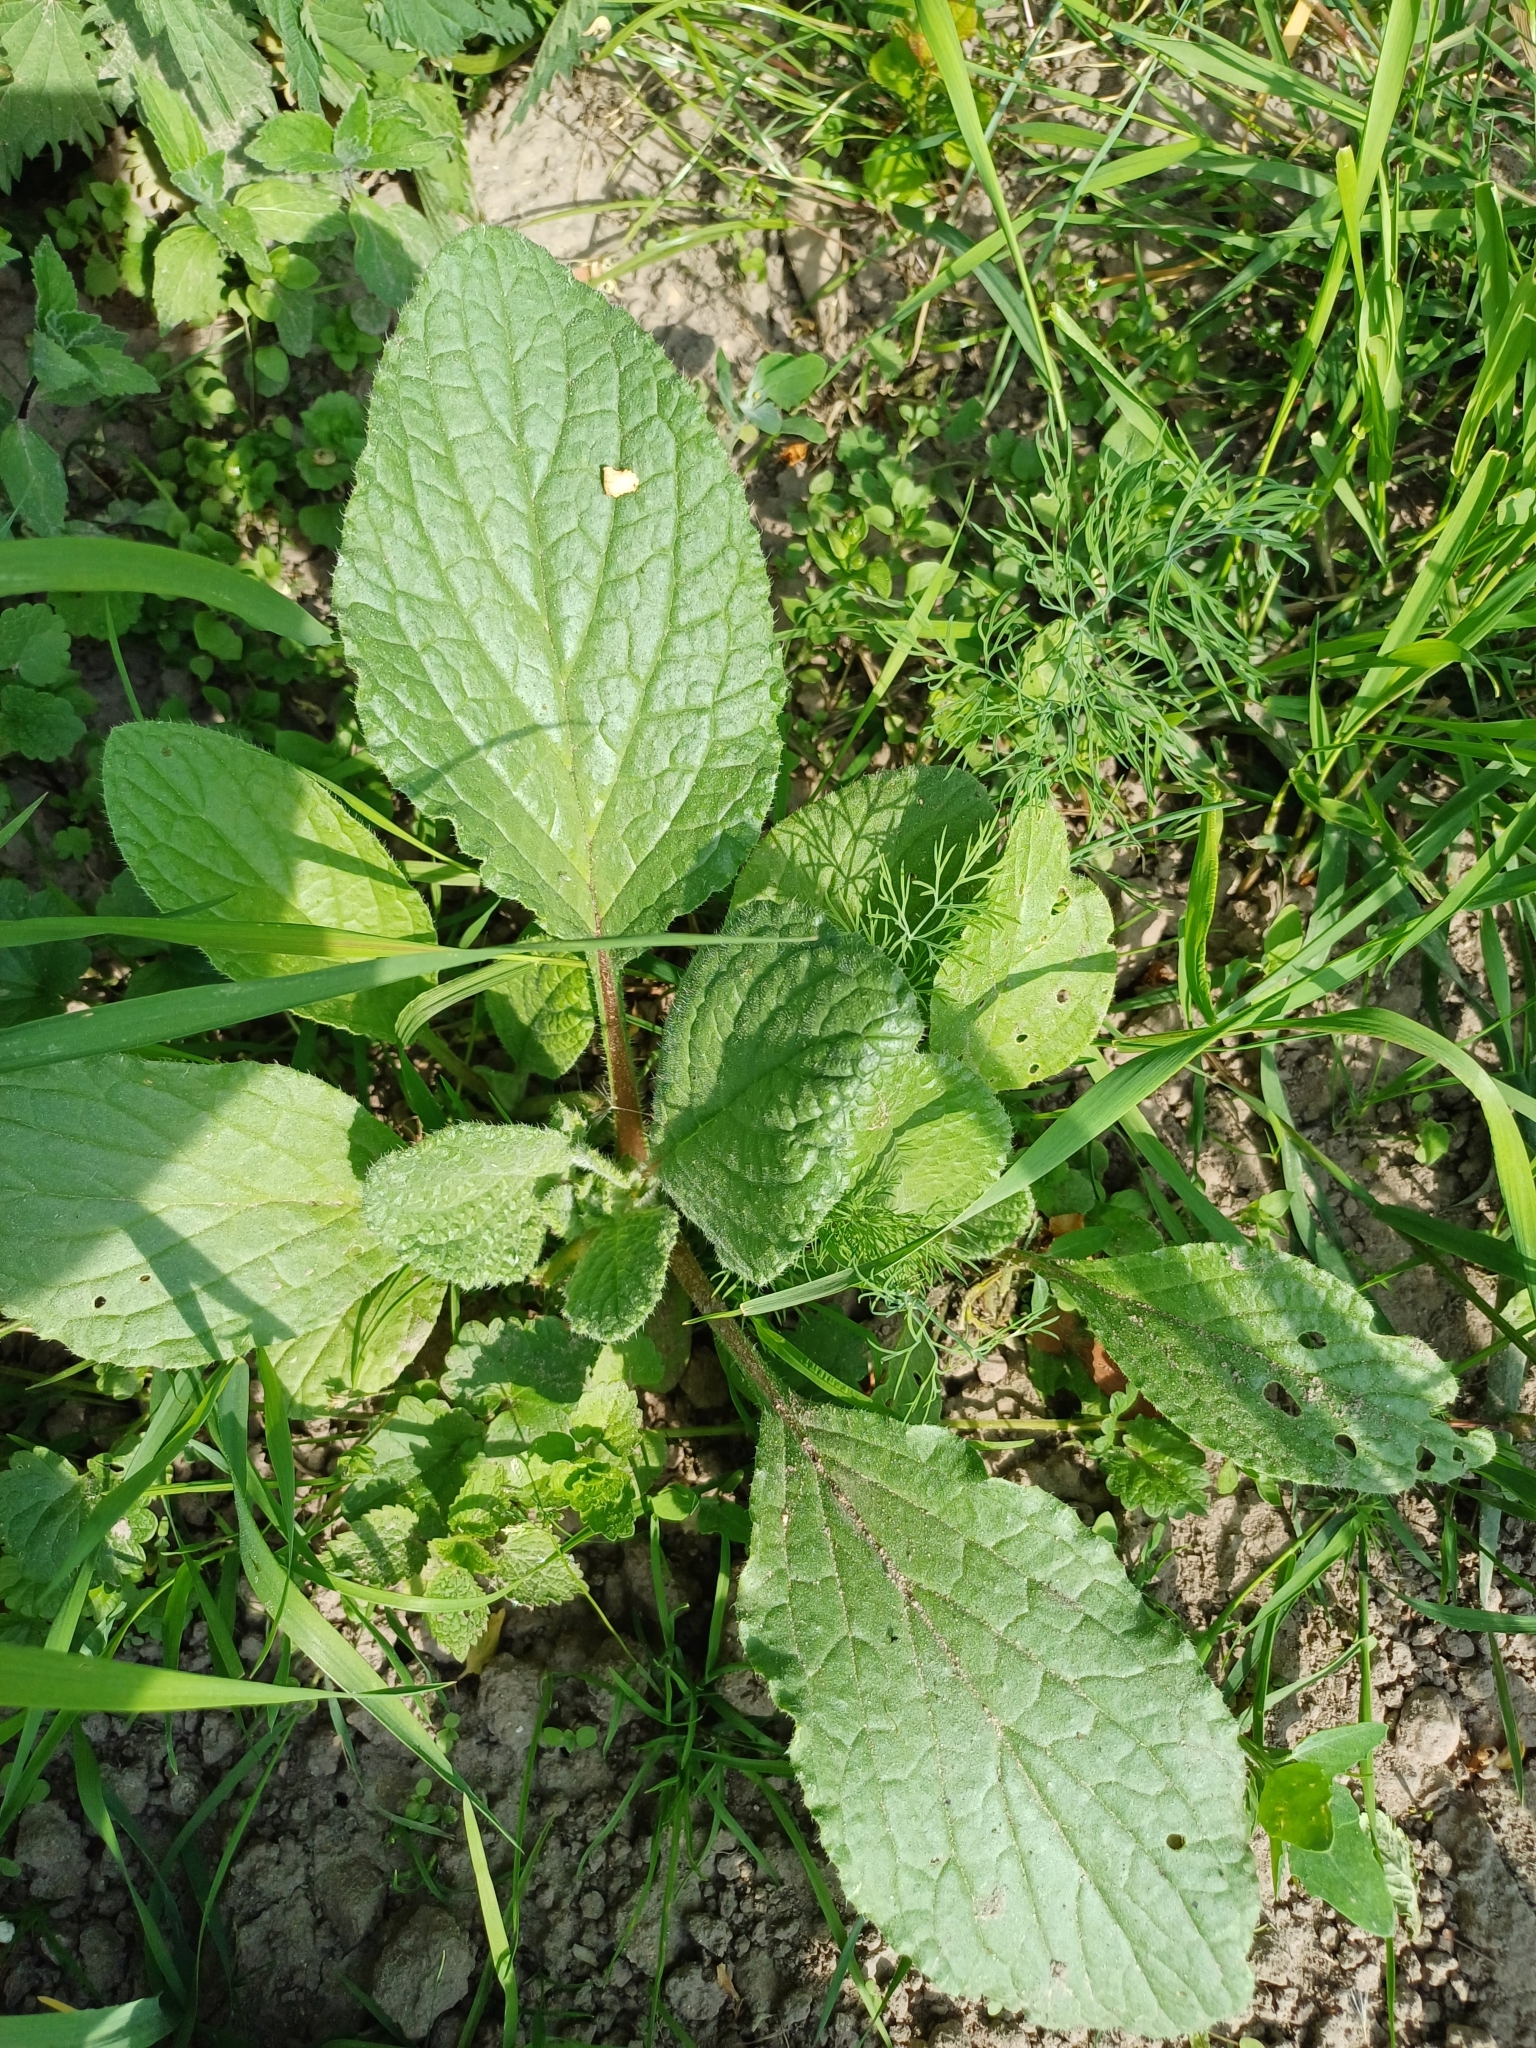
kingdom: Plantae
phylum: Tracheophyta
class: Magnoliopsida
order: Boraginales
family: Boraginaceae
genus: Borago
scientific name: Borago officinalis
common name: Borage
